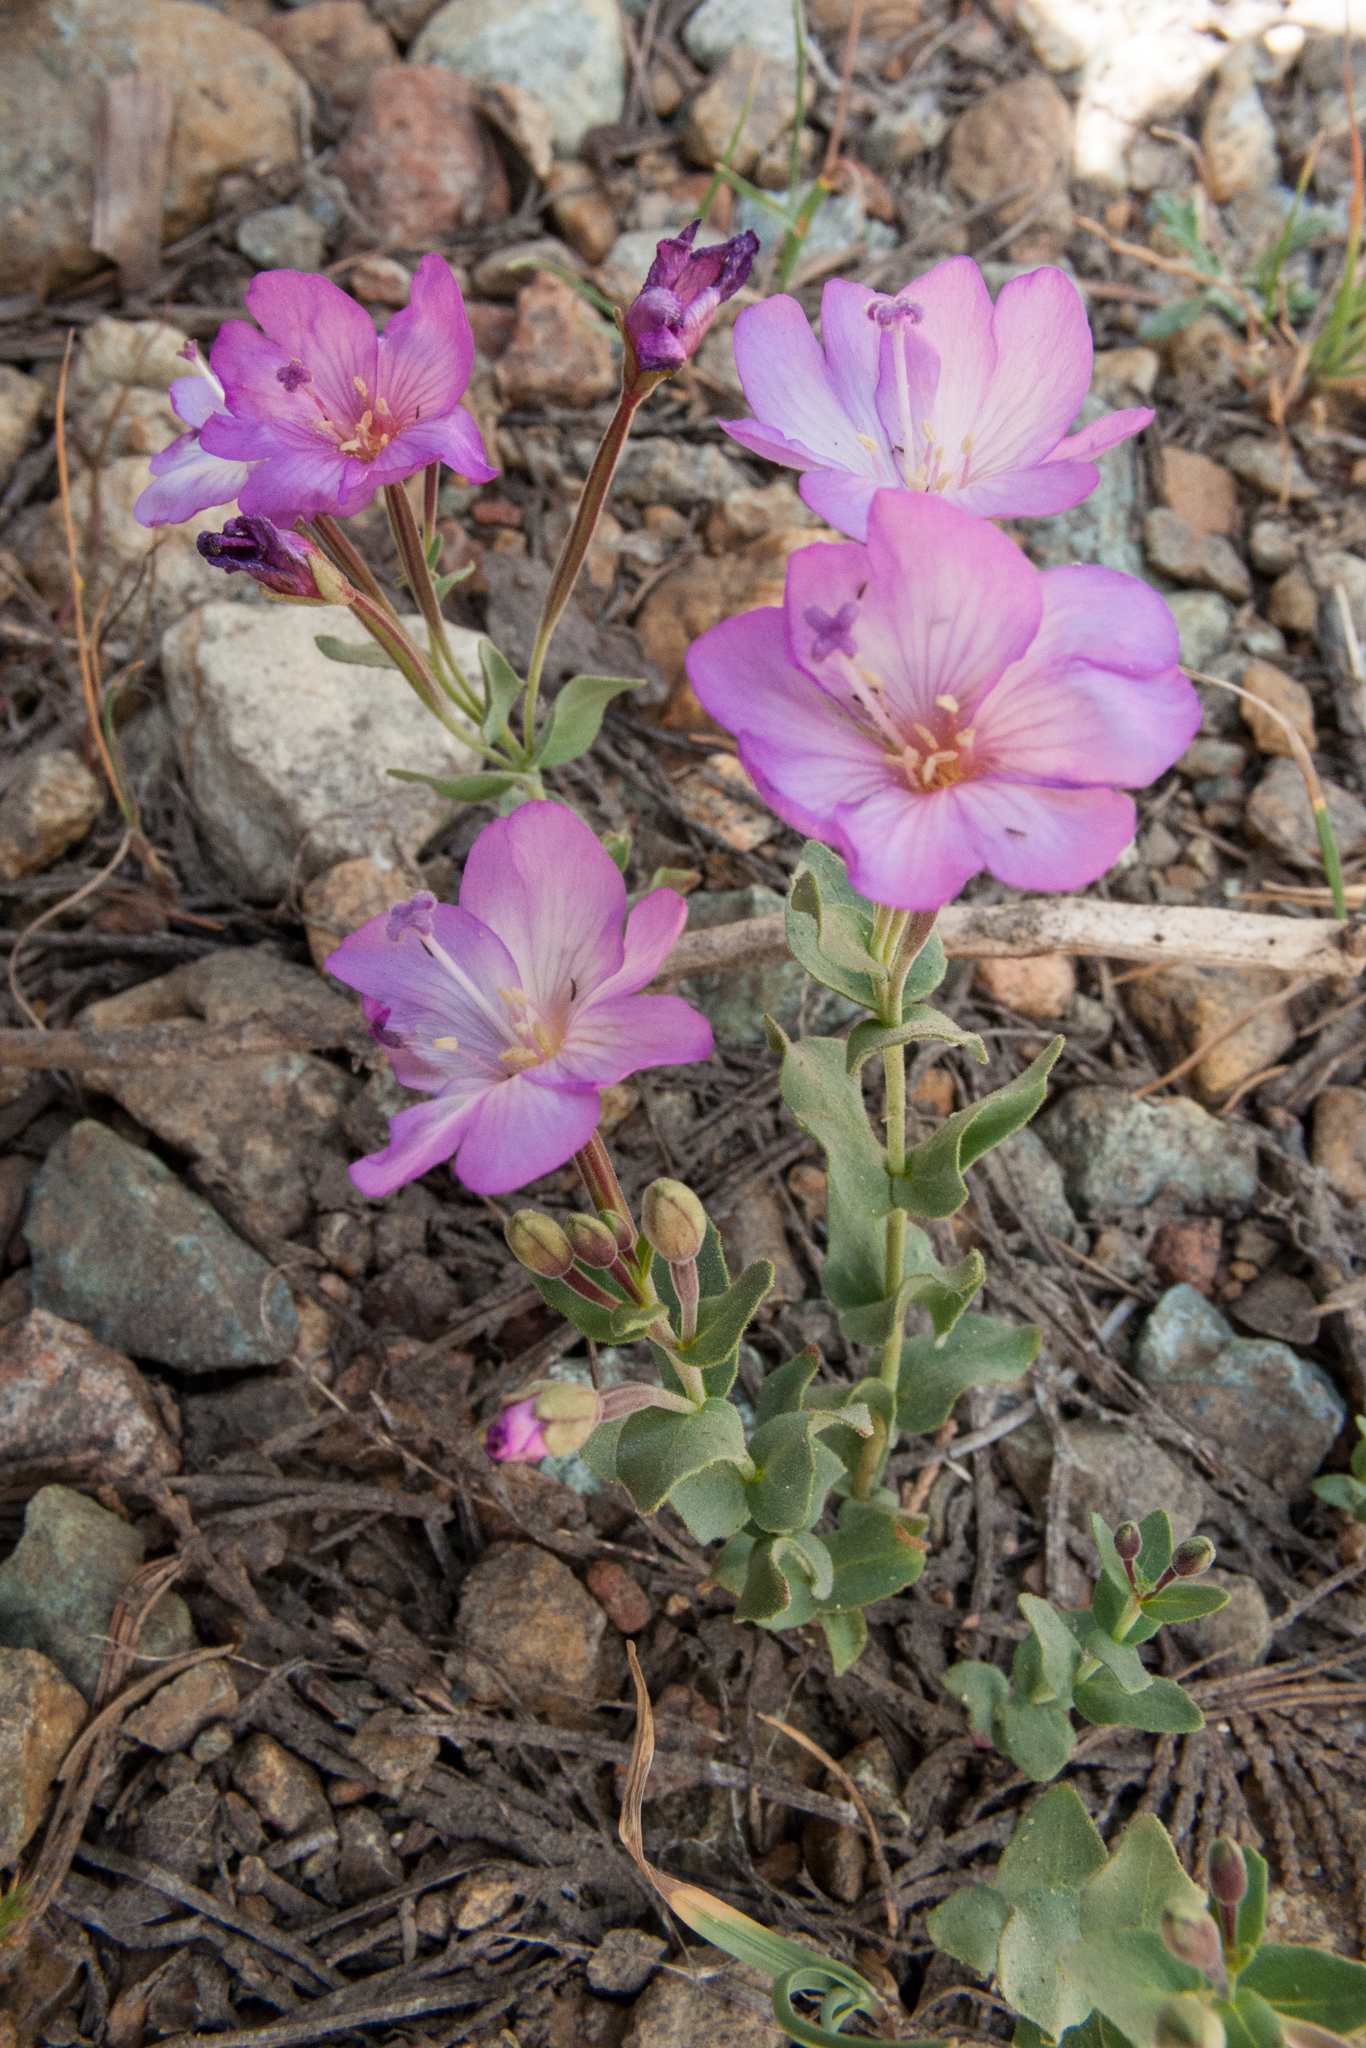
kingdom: Plantae
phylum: Tracheophyta
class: Magnoliopsida
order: Myrtales
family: Onagraceae
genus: Epilobium
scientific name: Epilobium siskiyouense
